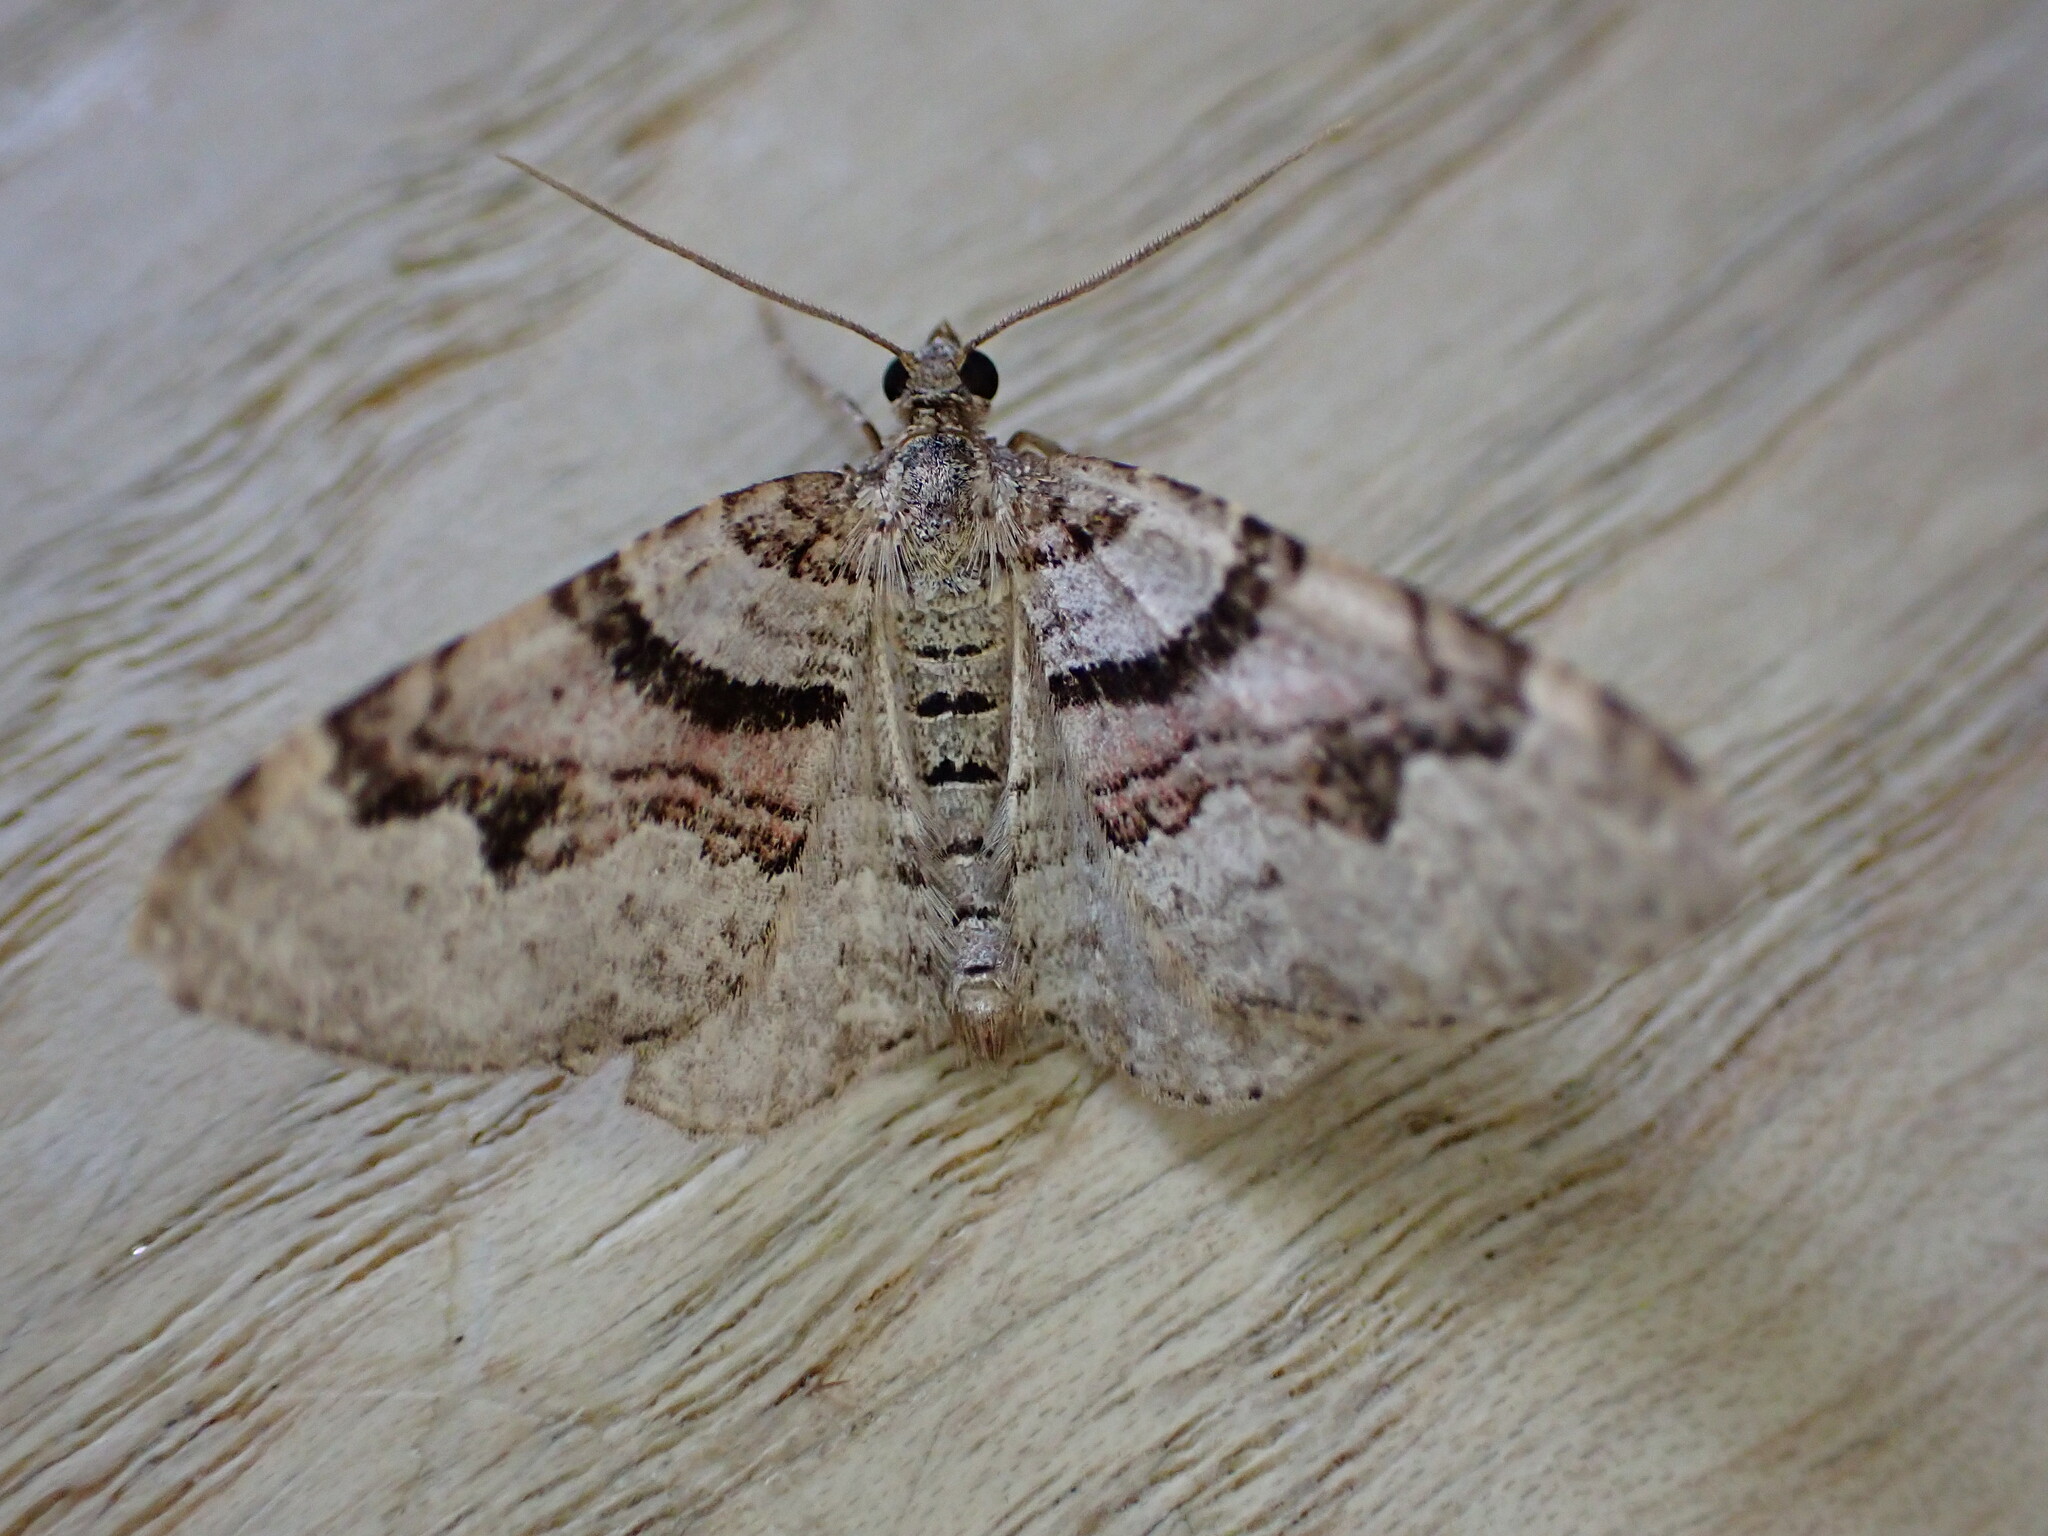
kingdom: Animalia
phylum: Arthropoda
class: Insecta
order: Lepidoptera
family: Geometridae
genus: Xanthorhoe
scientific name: Xanthorhoe designata
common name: Flame carpet
